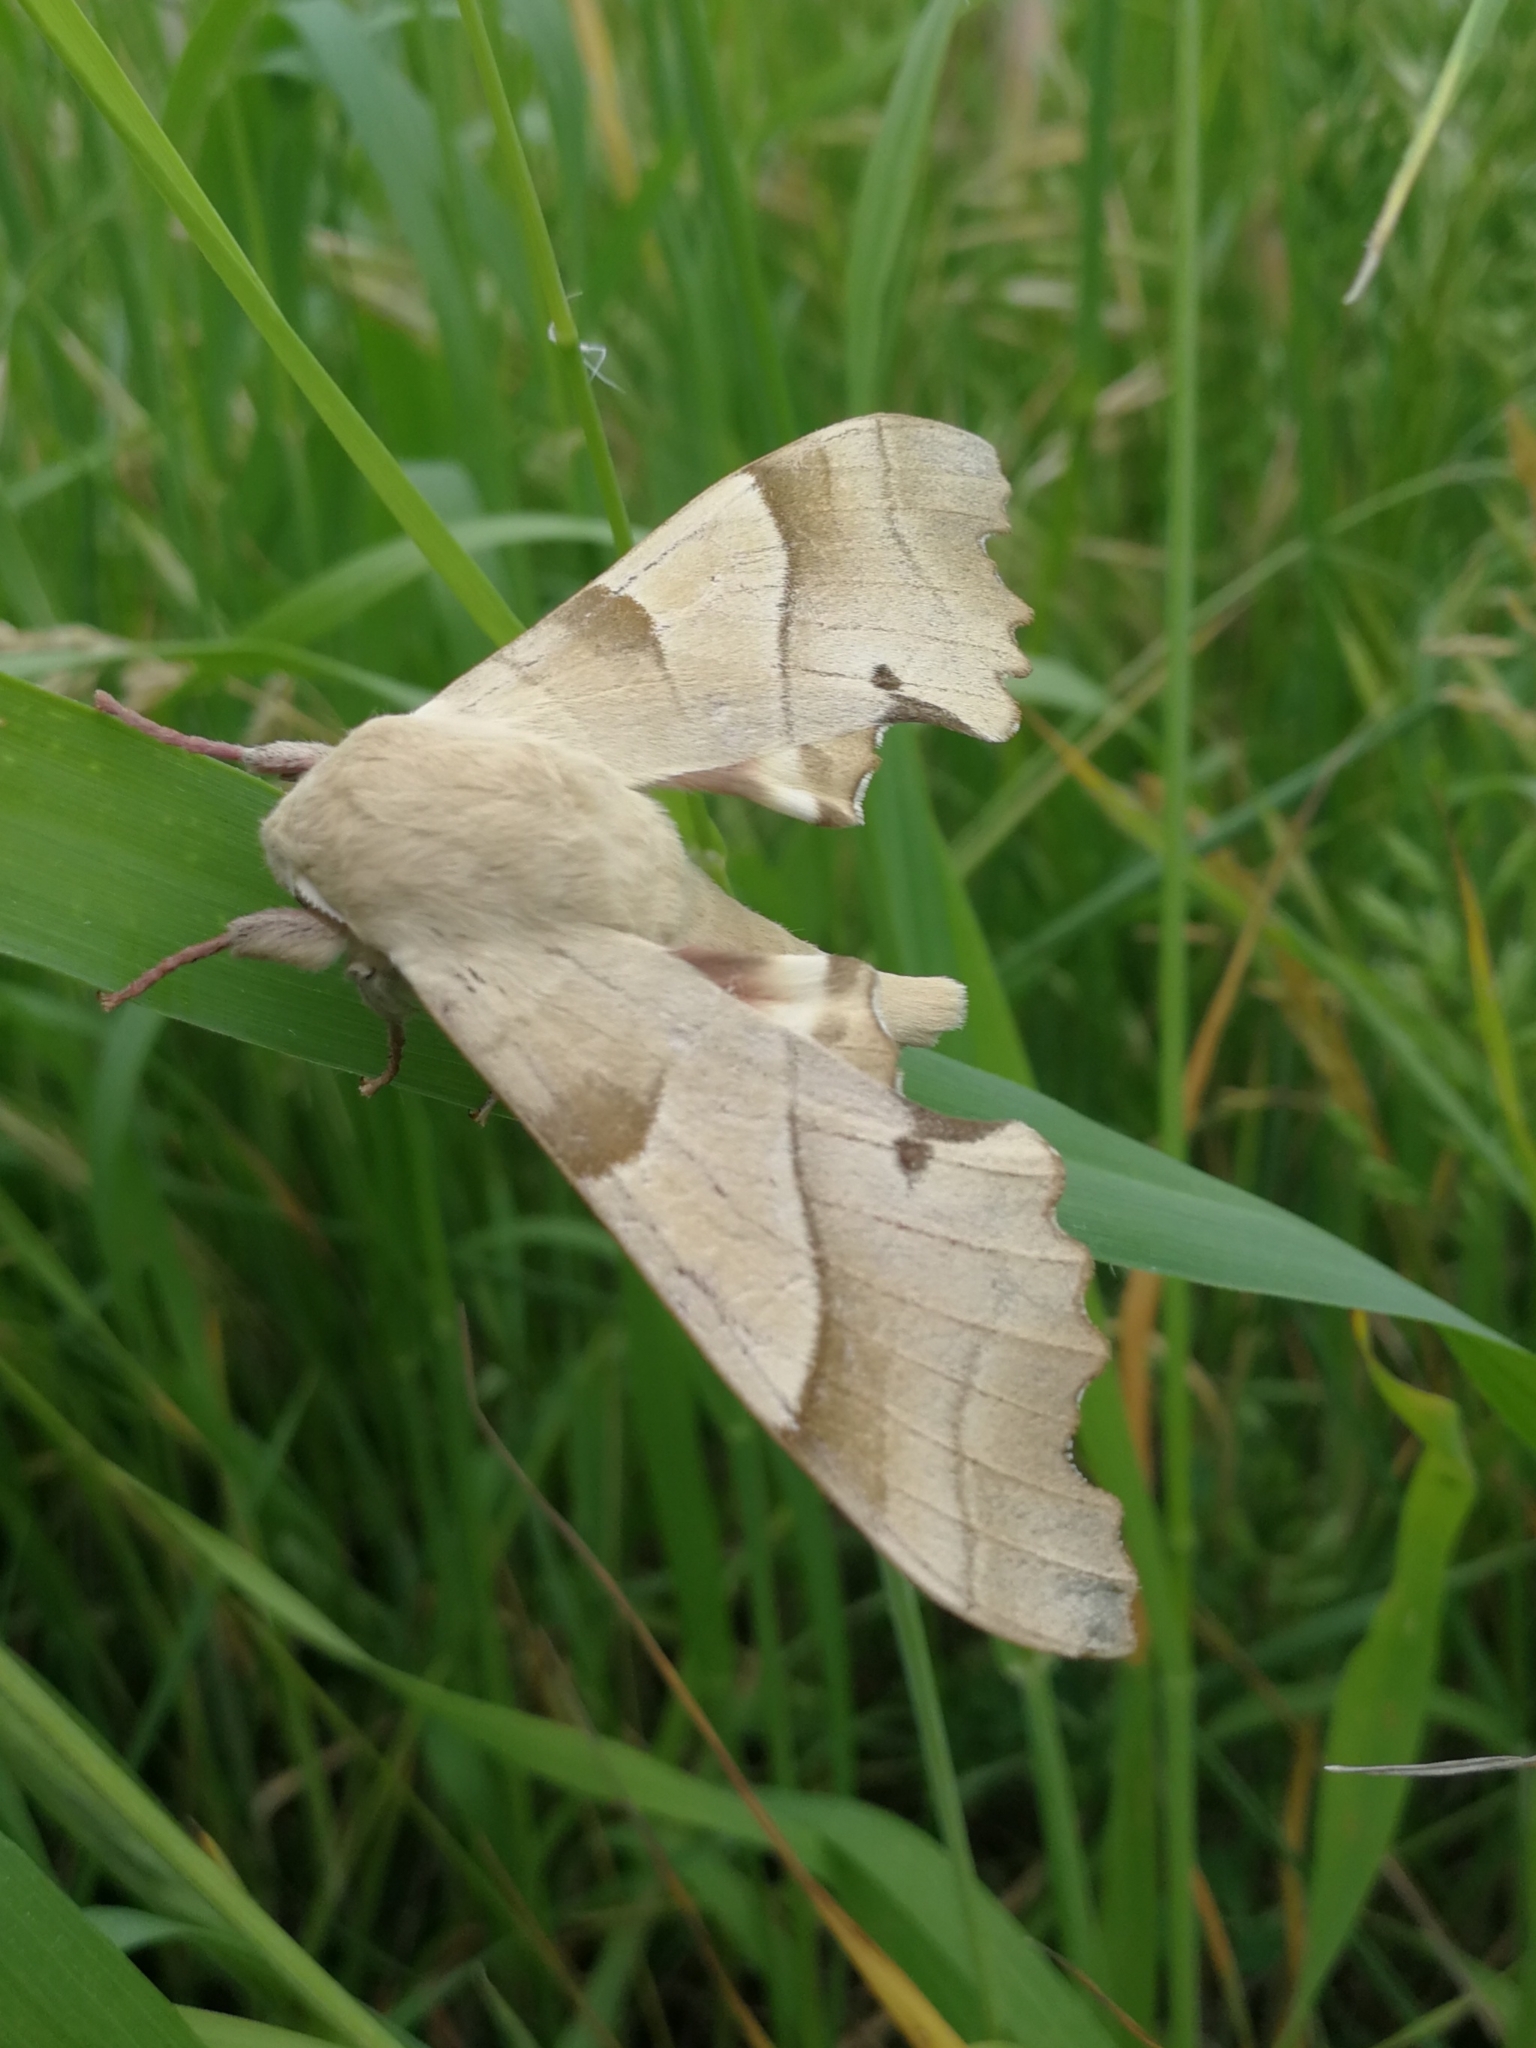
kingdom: Animalia
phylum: Arthropoda
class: Insecta
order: Lepidoptera
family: Sphingidae
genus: Marumba
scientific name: Marumba quercus
